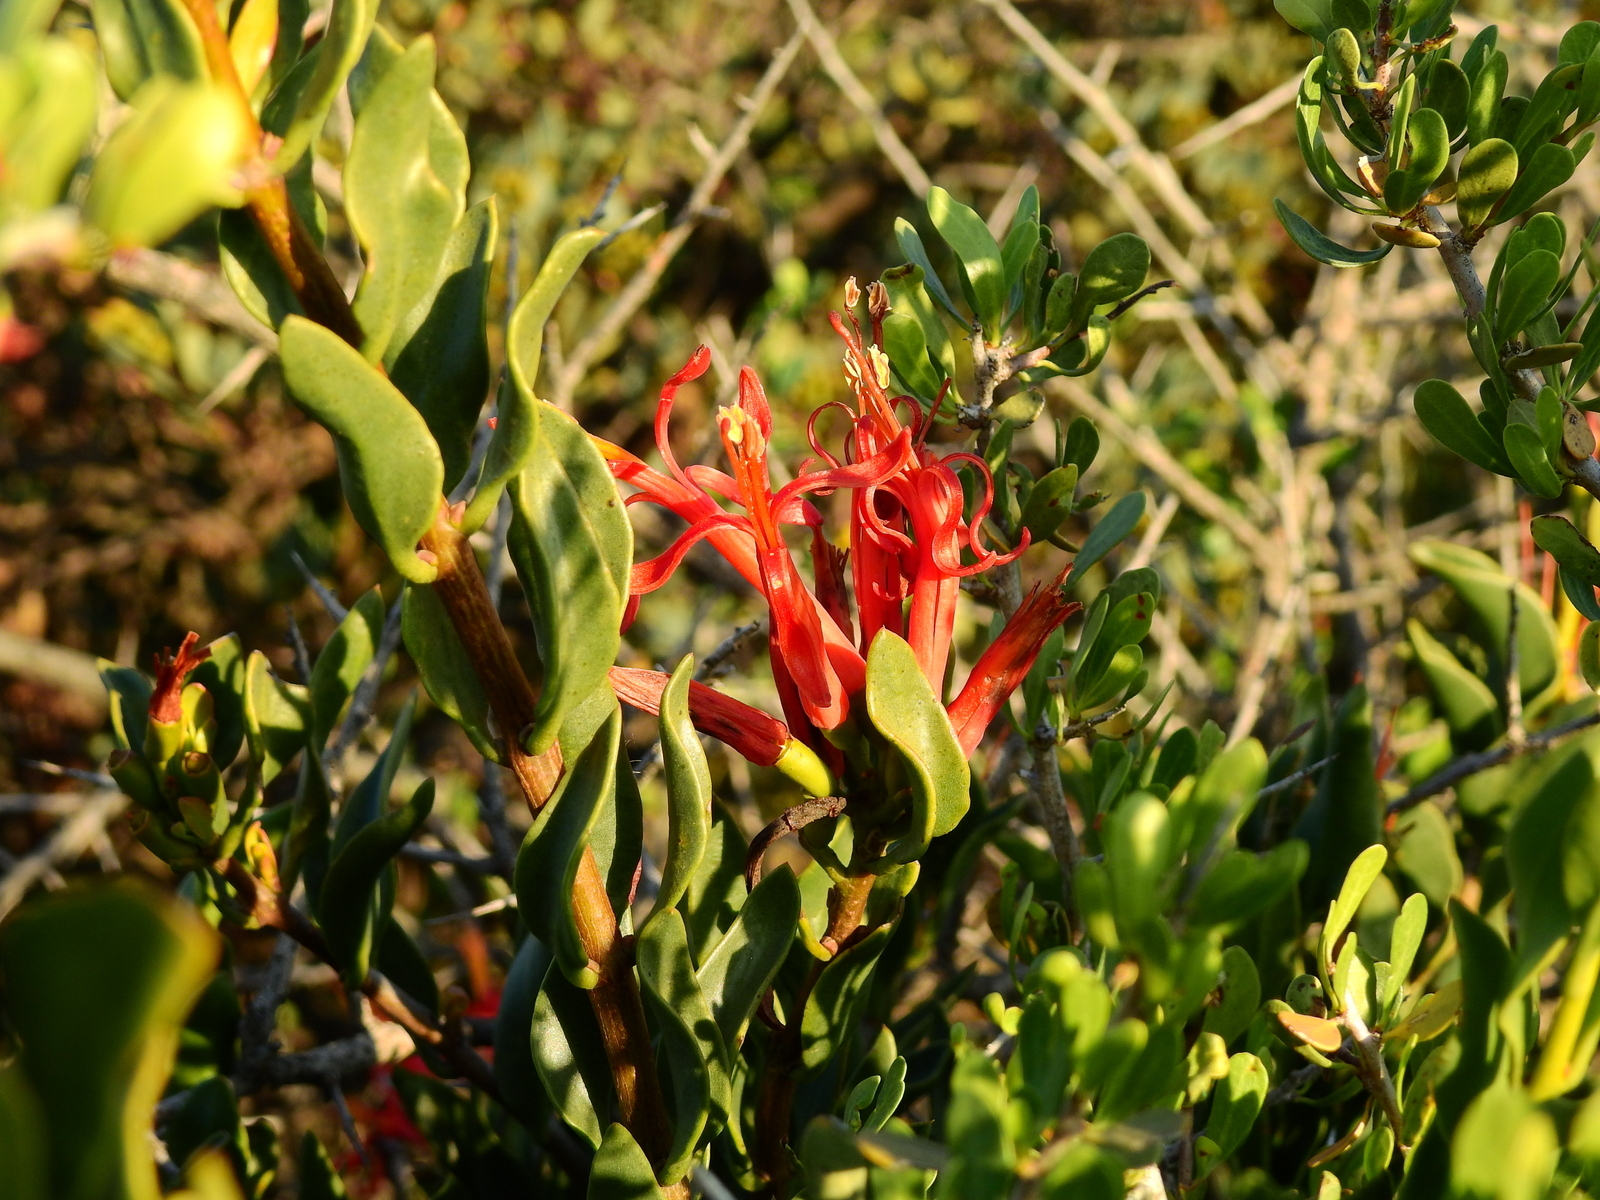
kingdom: Plantae
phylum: Tracheophyta
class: Magnoliopsida
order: Santalales
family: Loranthaceae
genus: Tristerix
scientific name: Tristerix verticillatus
